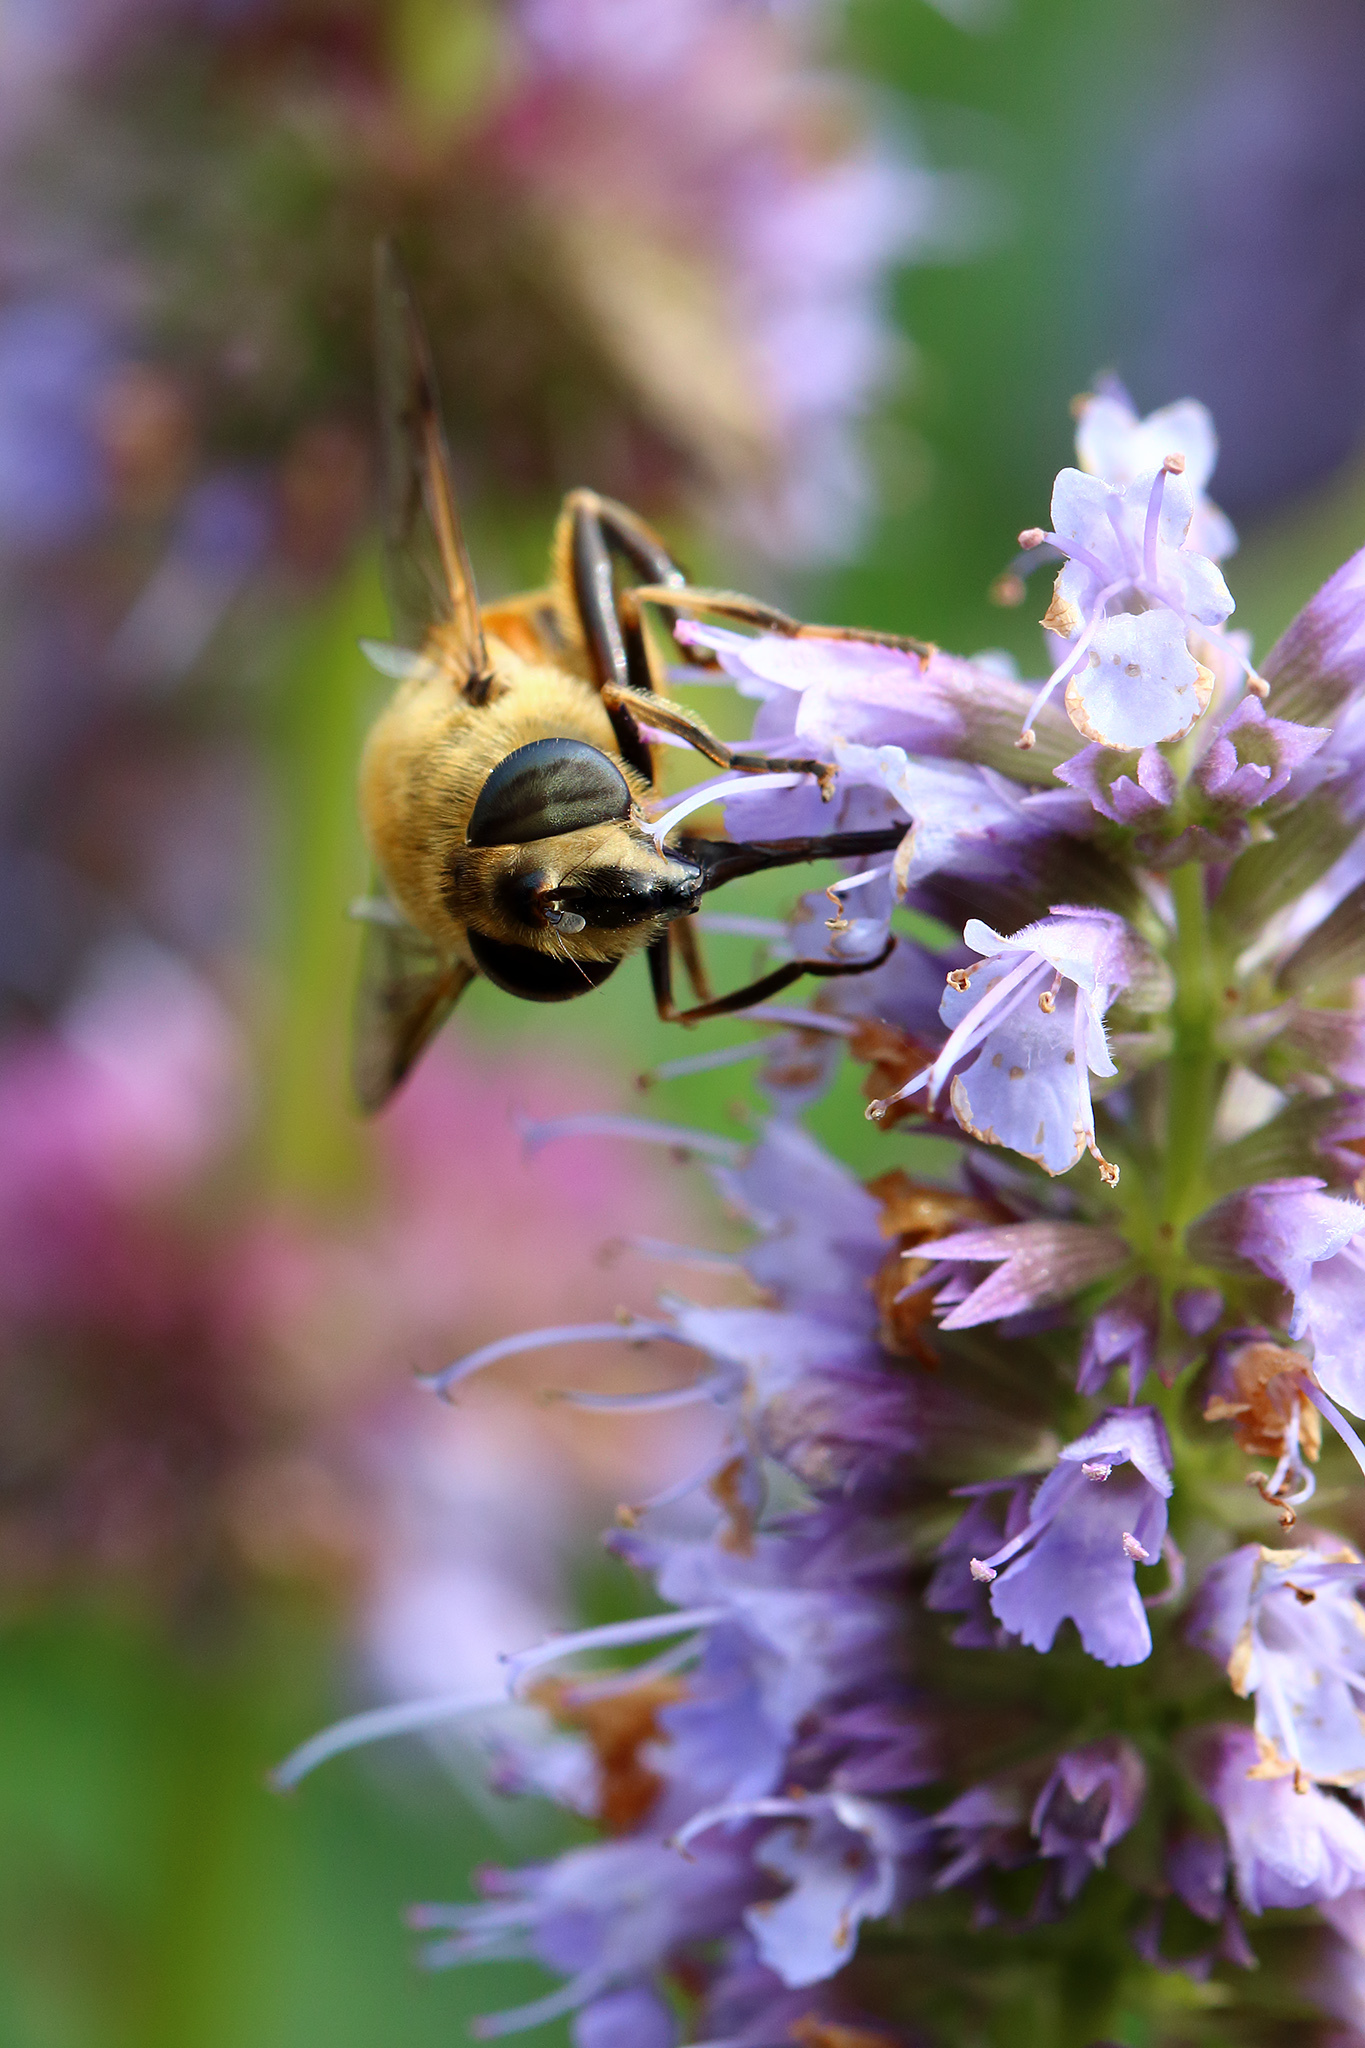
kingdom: Animalia
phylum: Arthropoda
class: Insecta
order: Diptera
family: Syrphidae
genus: Eristalis
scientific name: Eristalis tenax
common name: Drone fly
